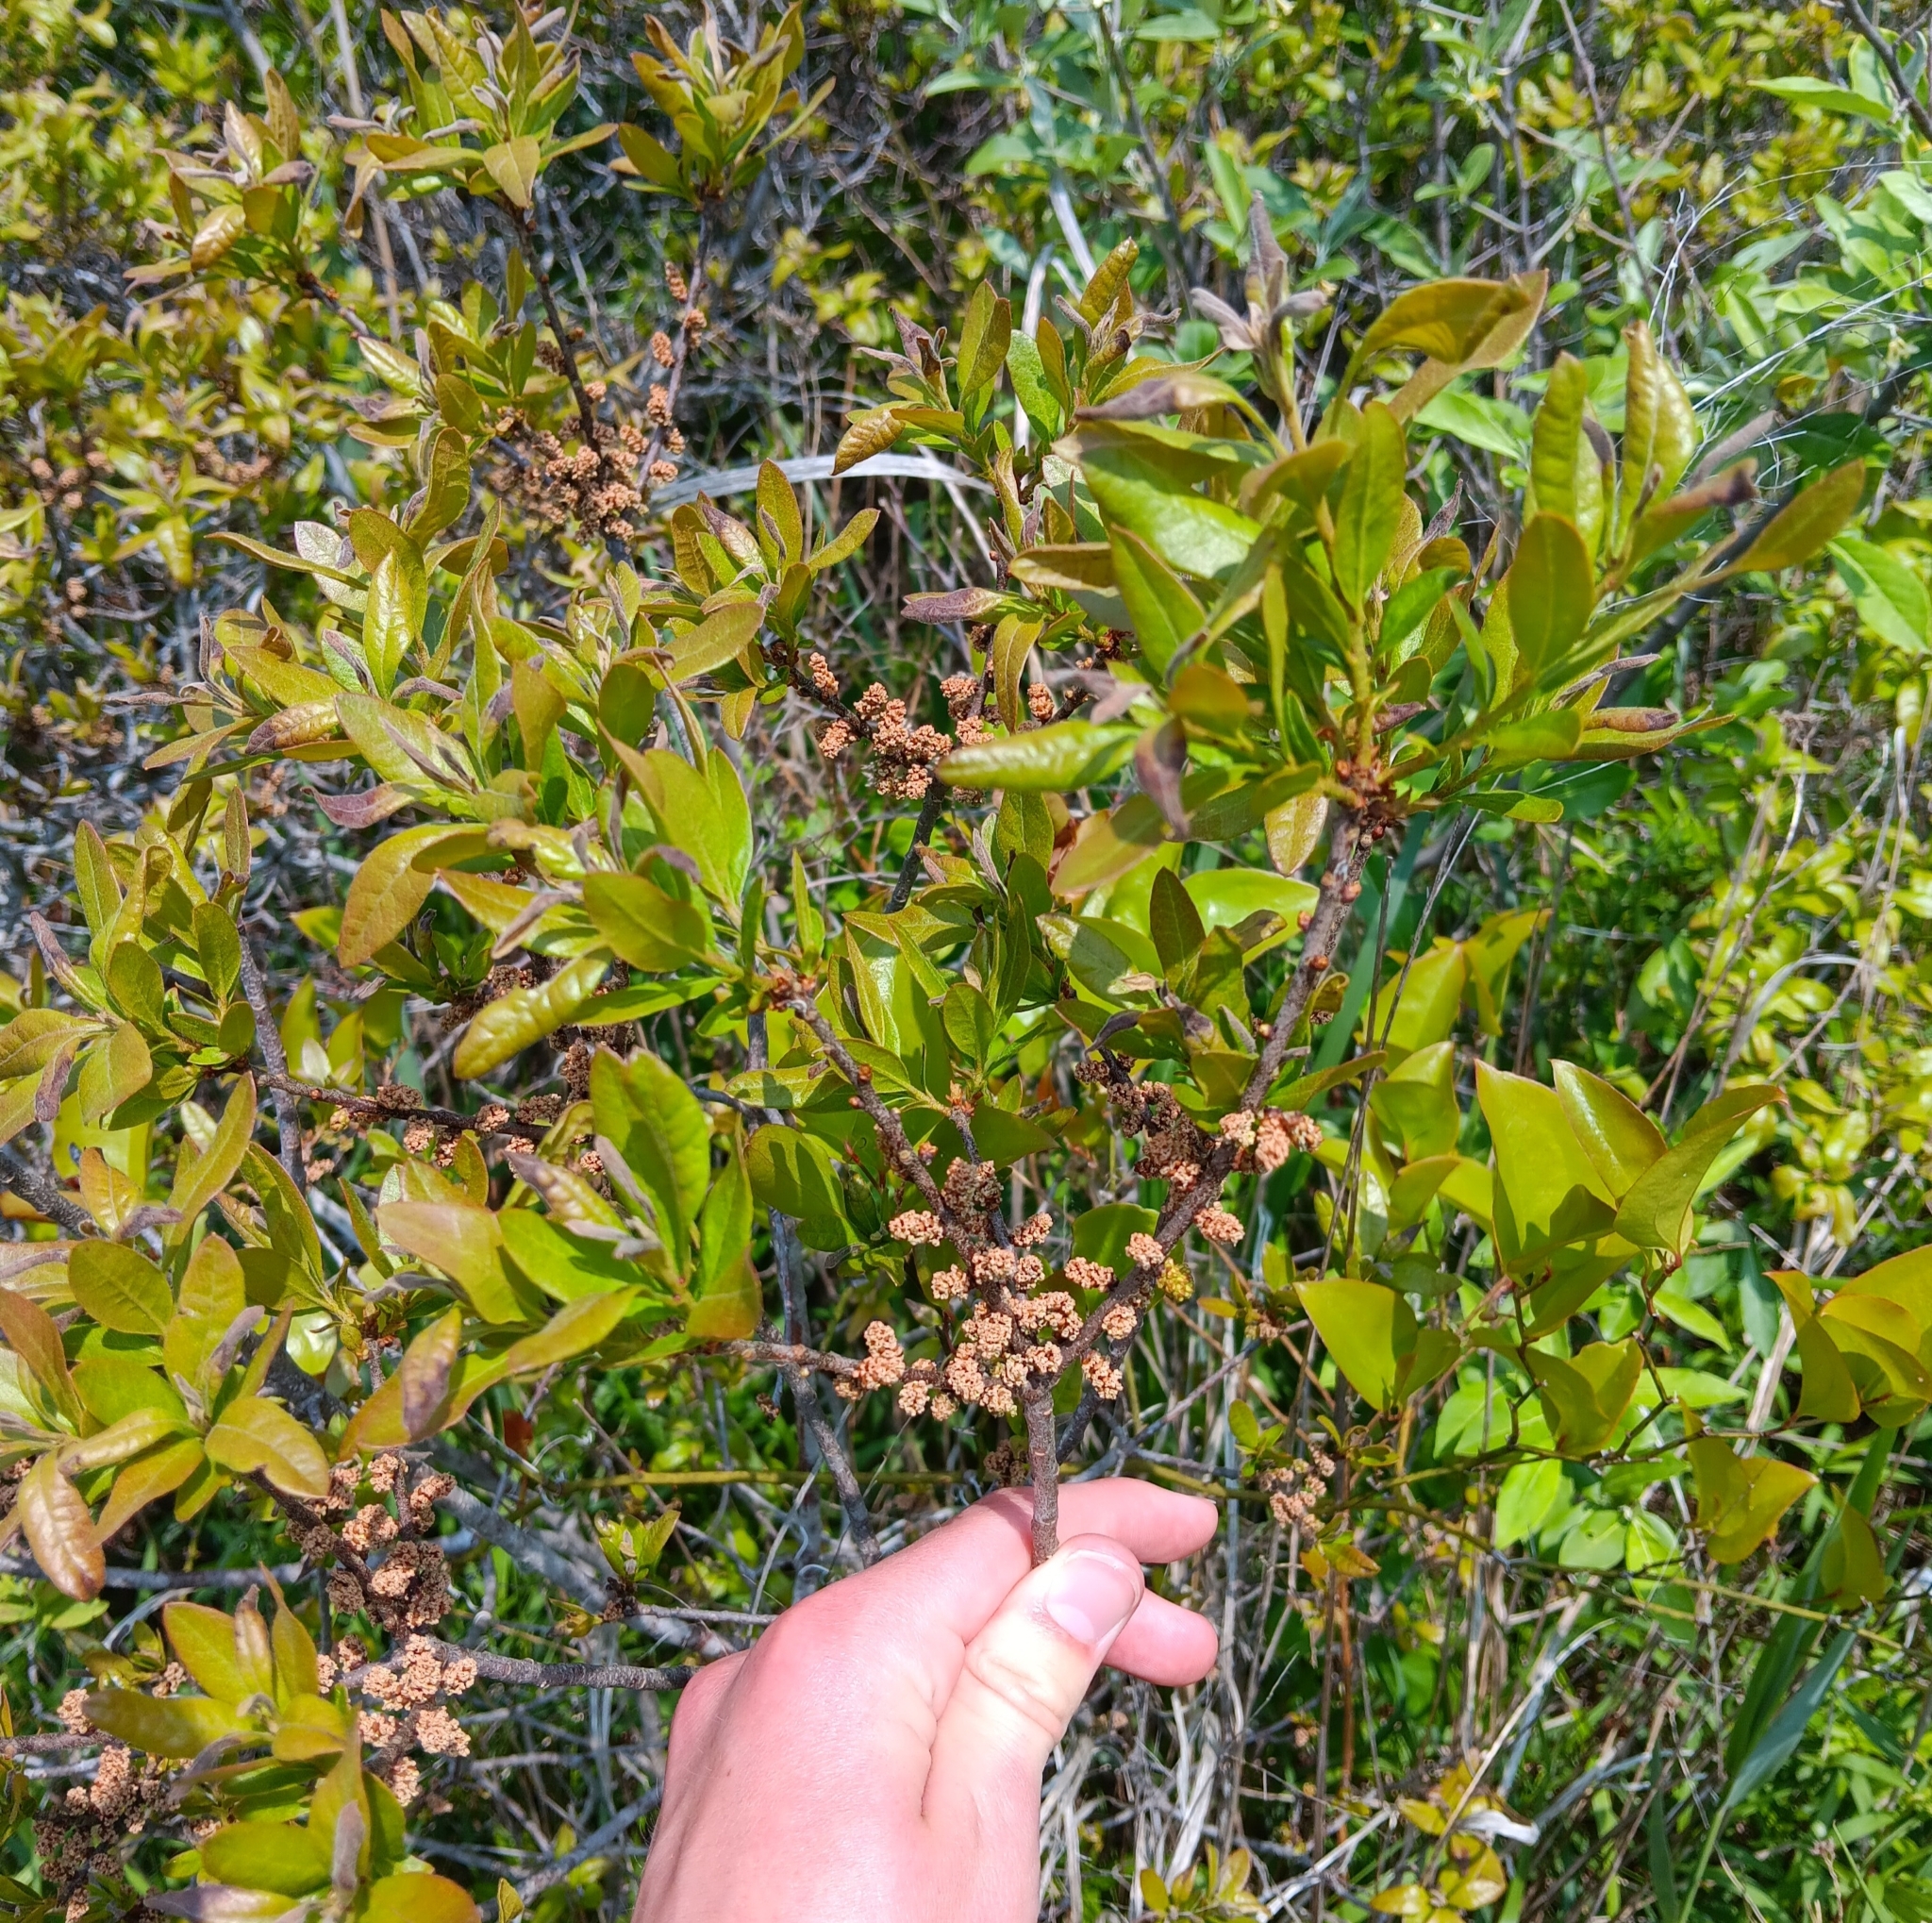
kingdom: Plantae
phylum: Tracheophyta
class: Magnoliopsida
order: Fagales
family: Myricaceae
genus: Morella
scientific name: Morella pensylvanica
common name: Northern bayberry
